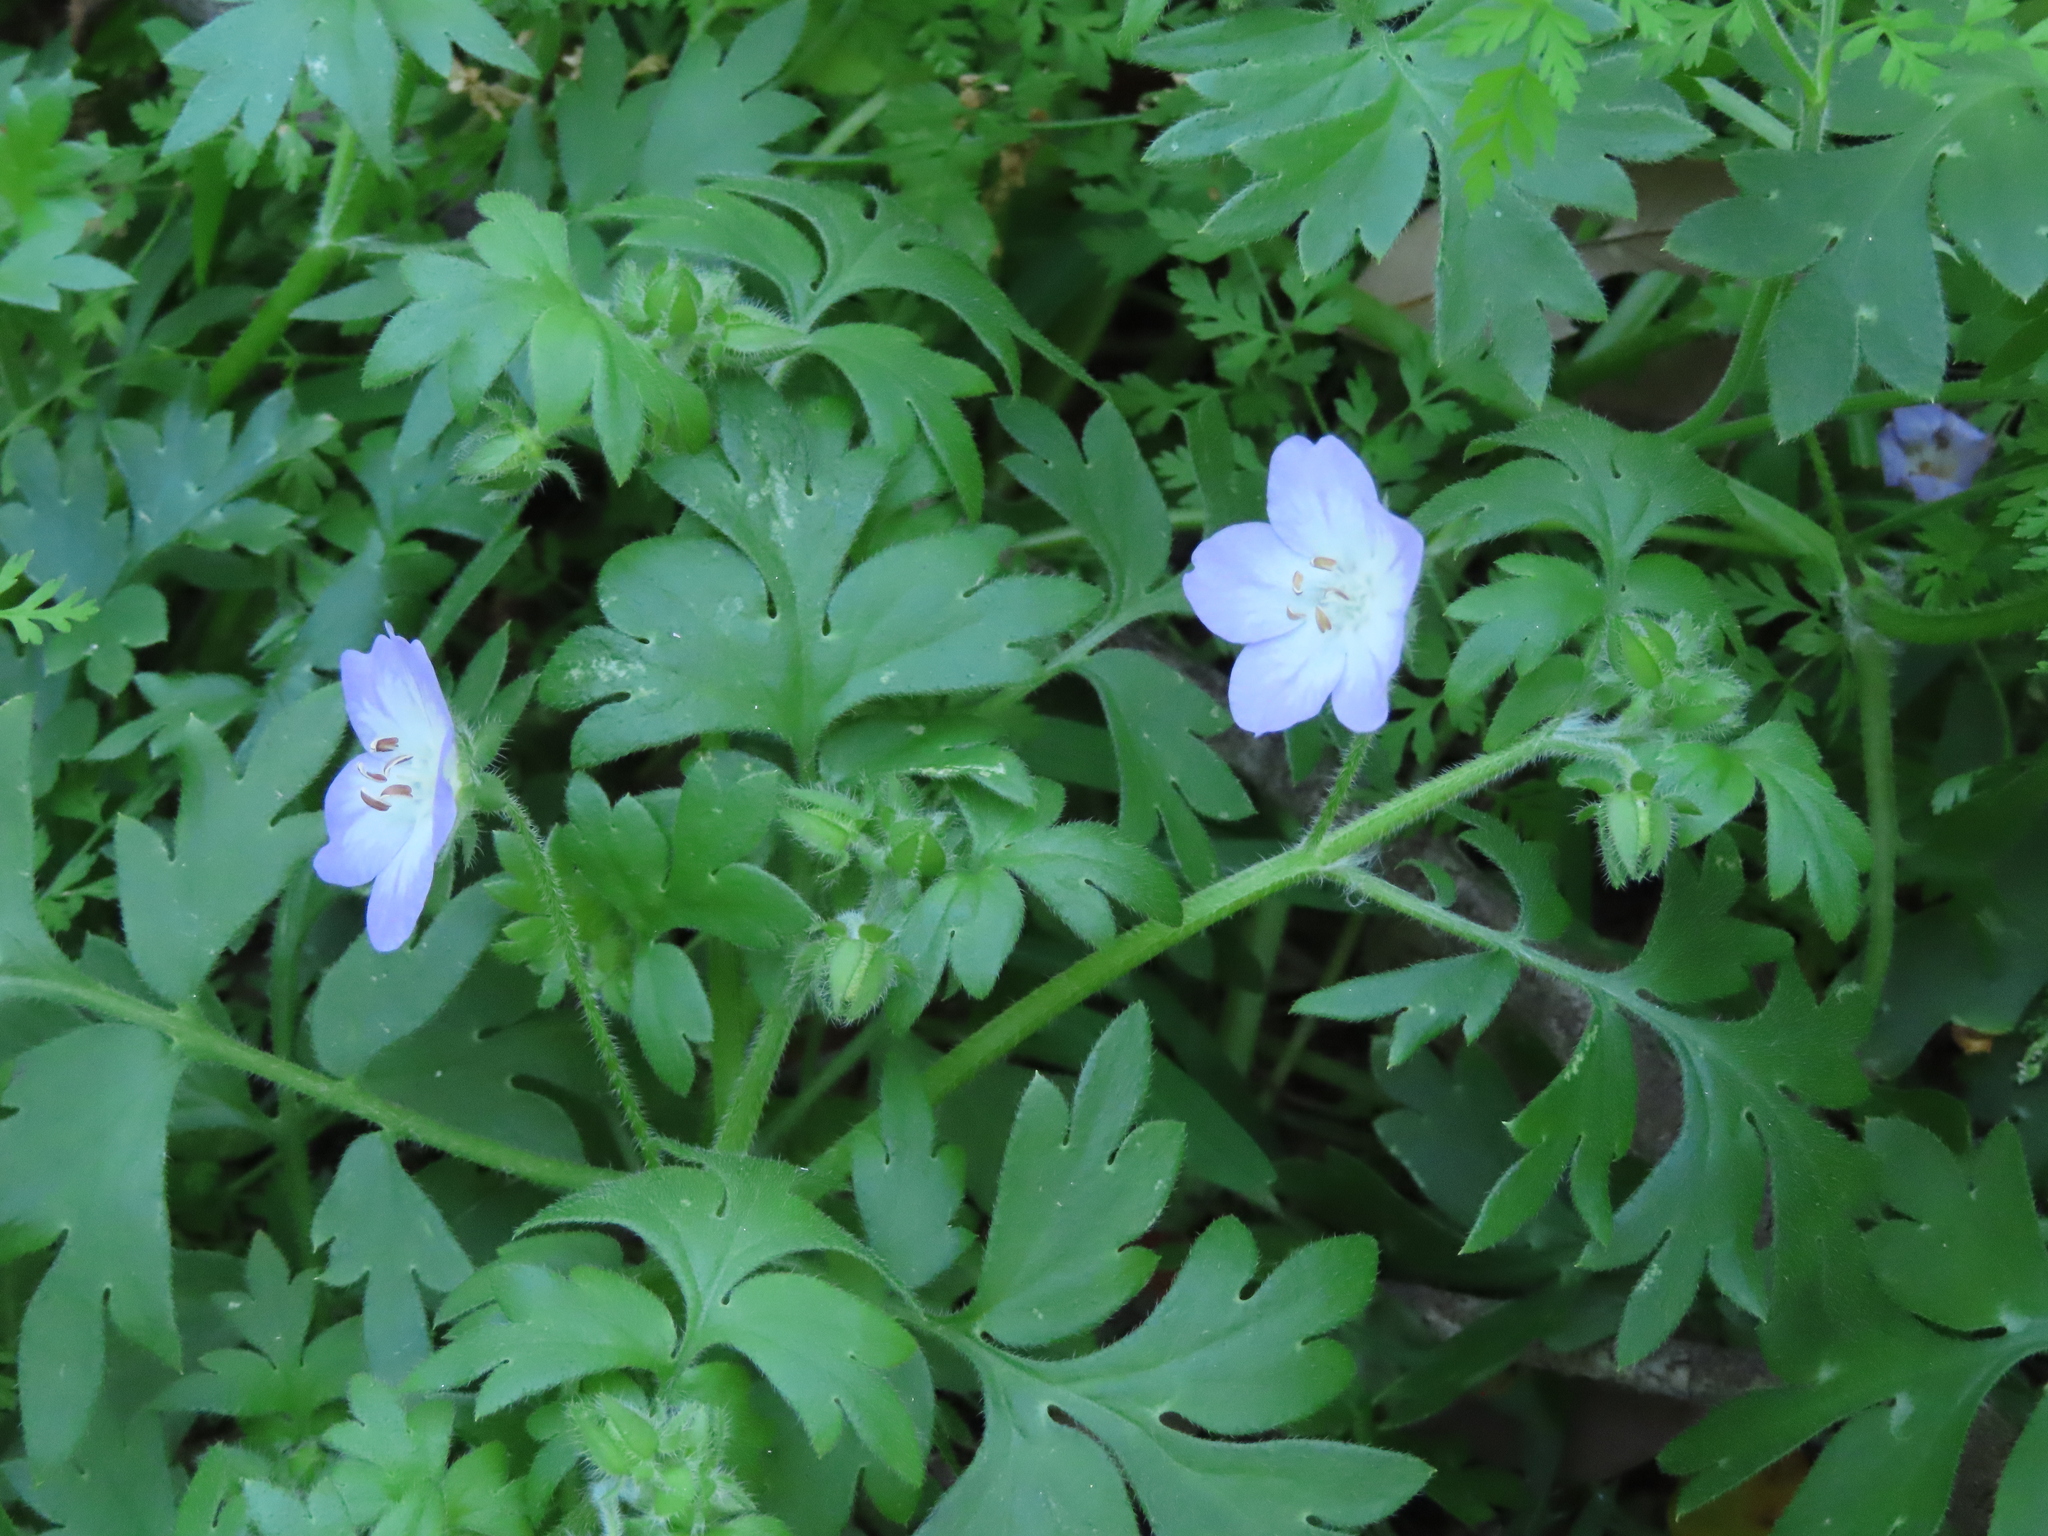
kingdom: Plantae
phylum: Tracheophyta
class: Magnoliopsida
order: Boraginales
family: Hydrophyllaceae
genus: Nemophila
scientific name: Nemophila phacelioides
